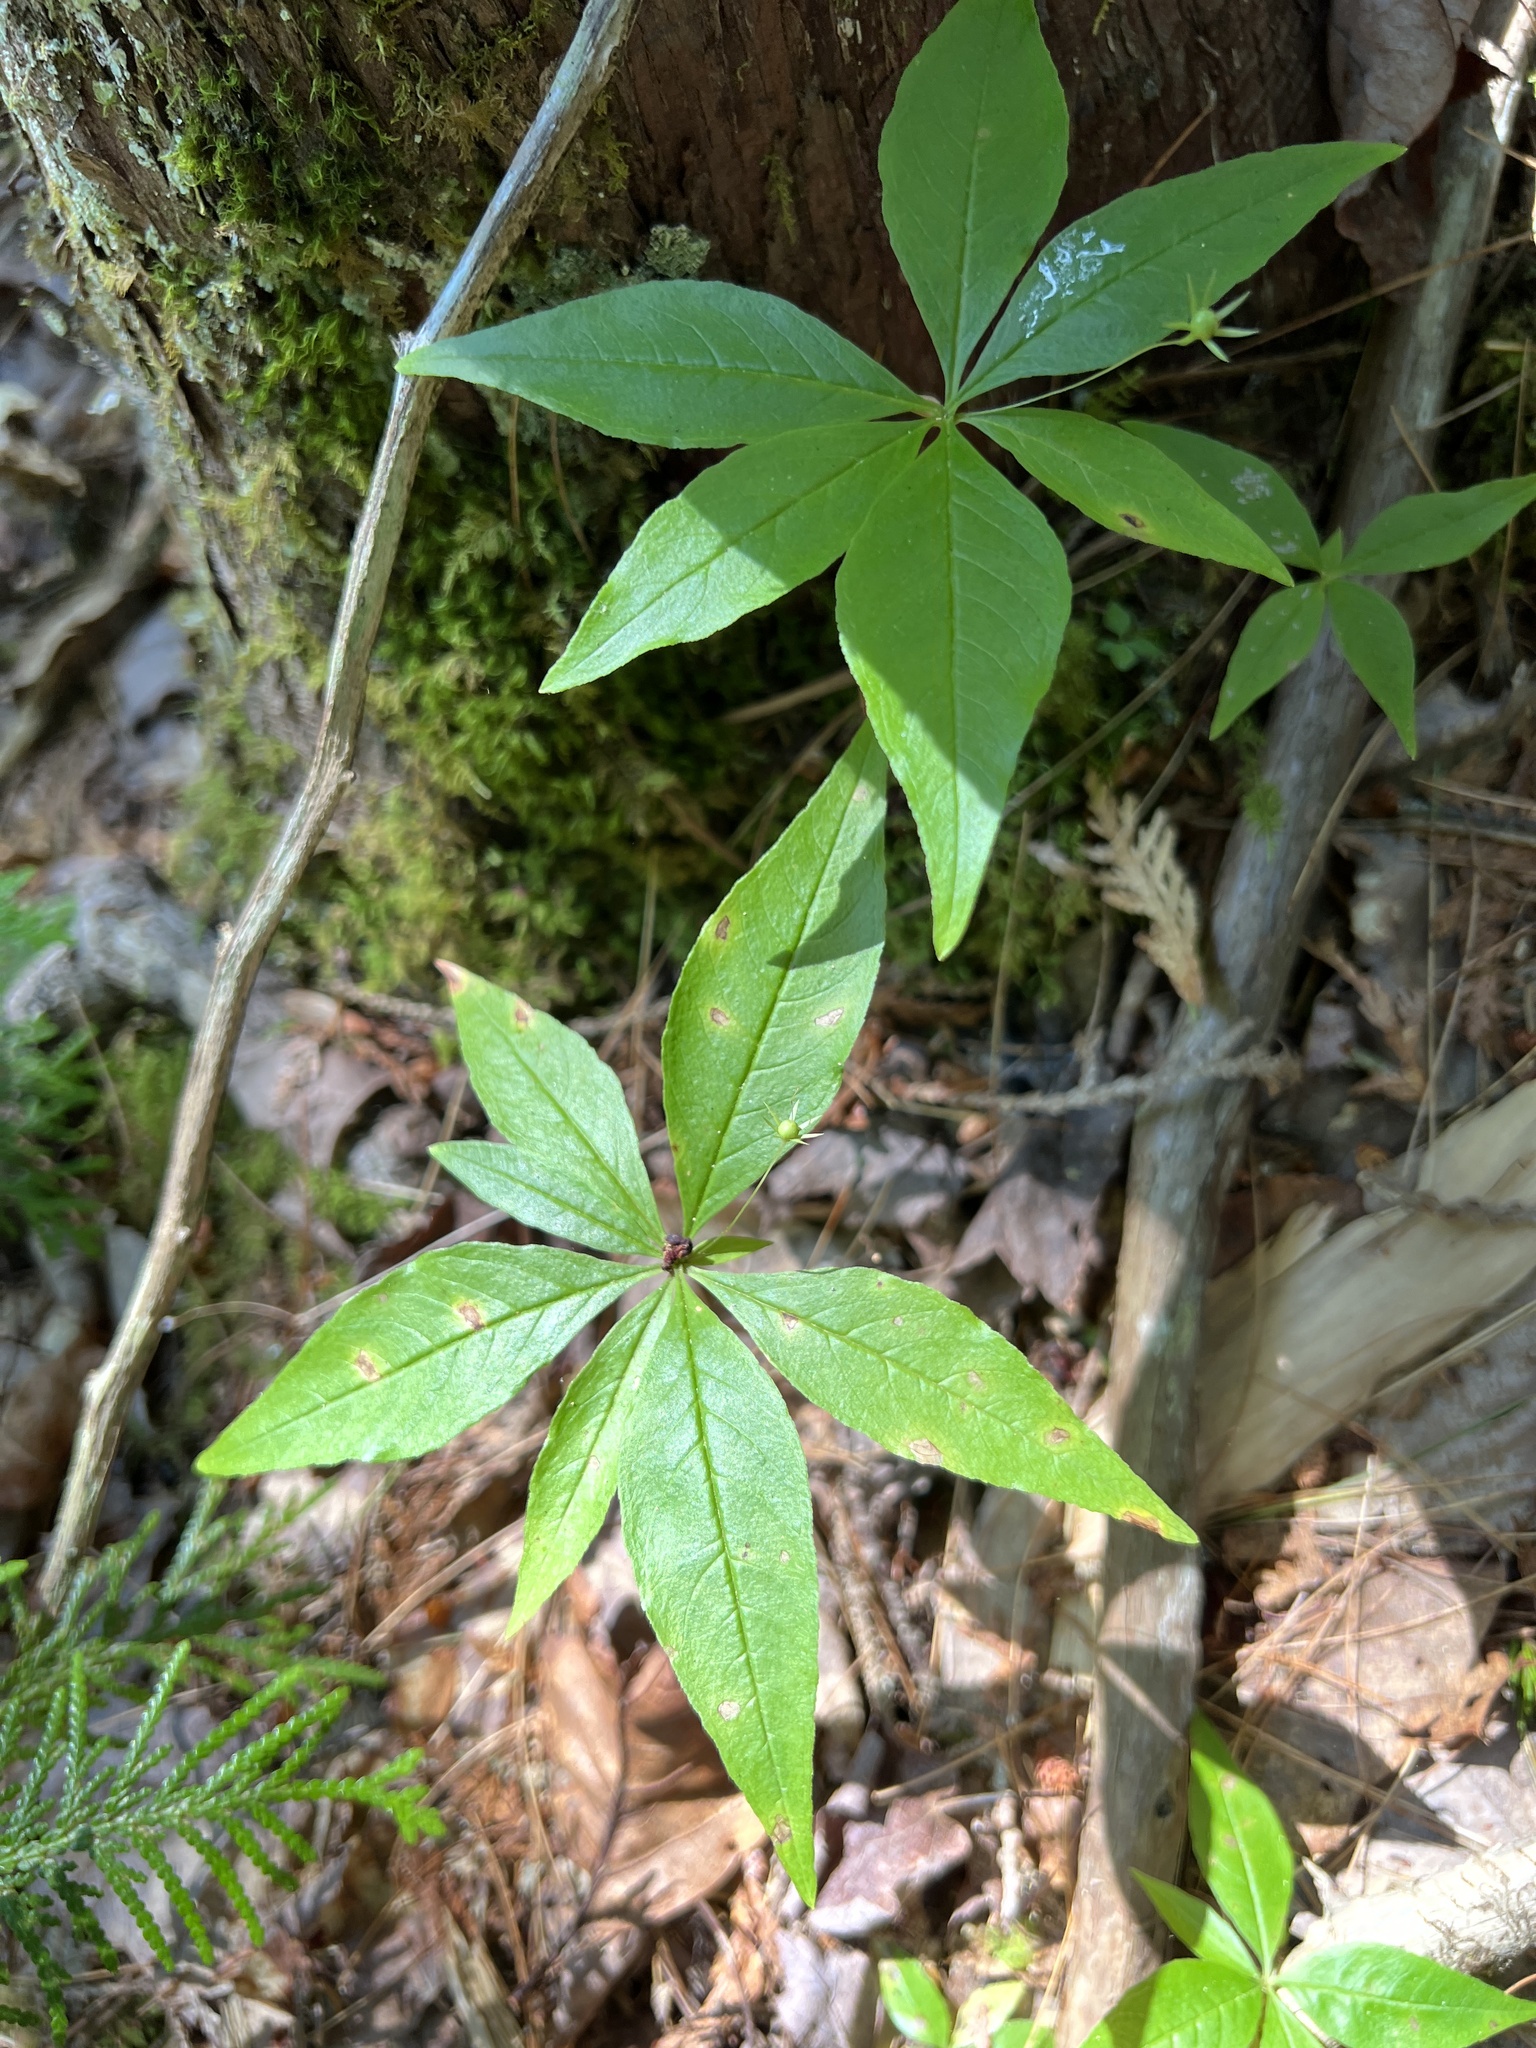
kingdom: Plantae
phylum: Tracheophyta
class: Magnoliopsida
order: Ericales
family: Primulaceae
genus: Lysimachia
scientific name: Lysimachia borealis
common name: American starflower
